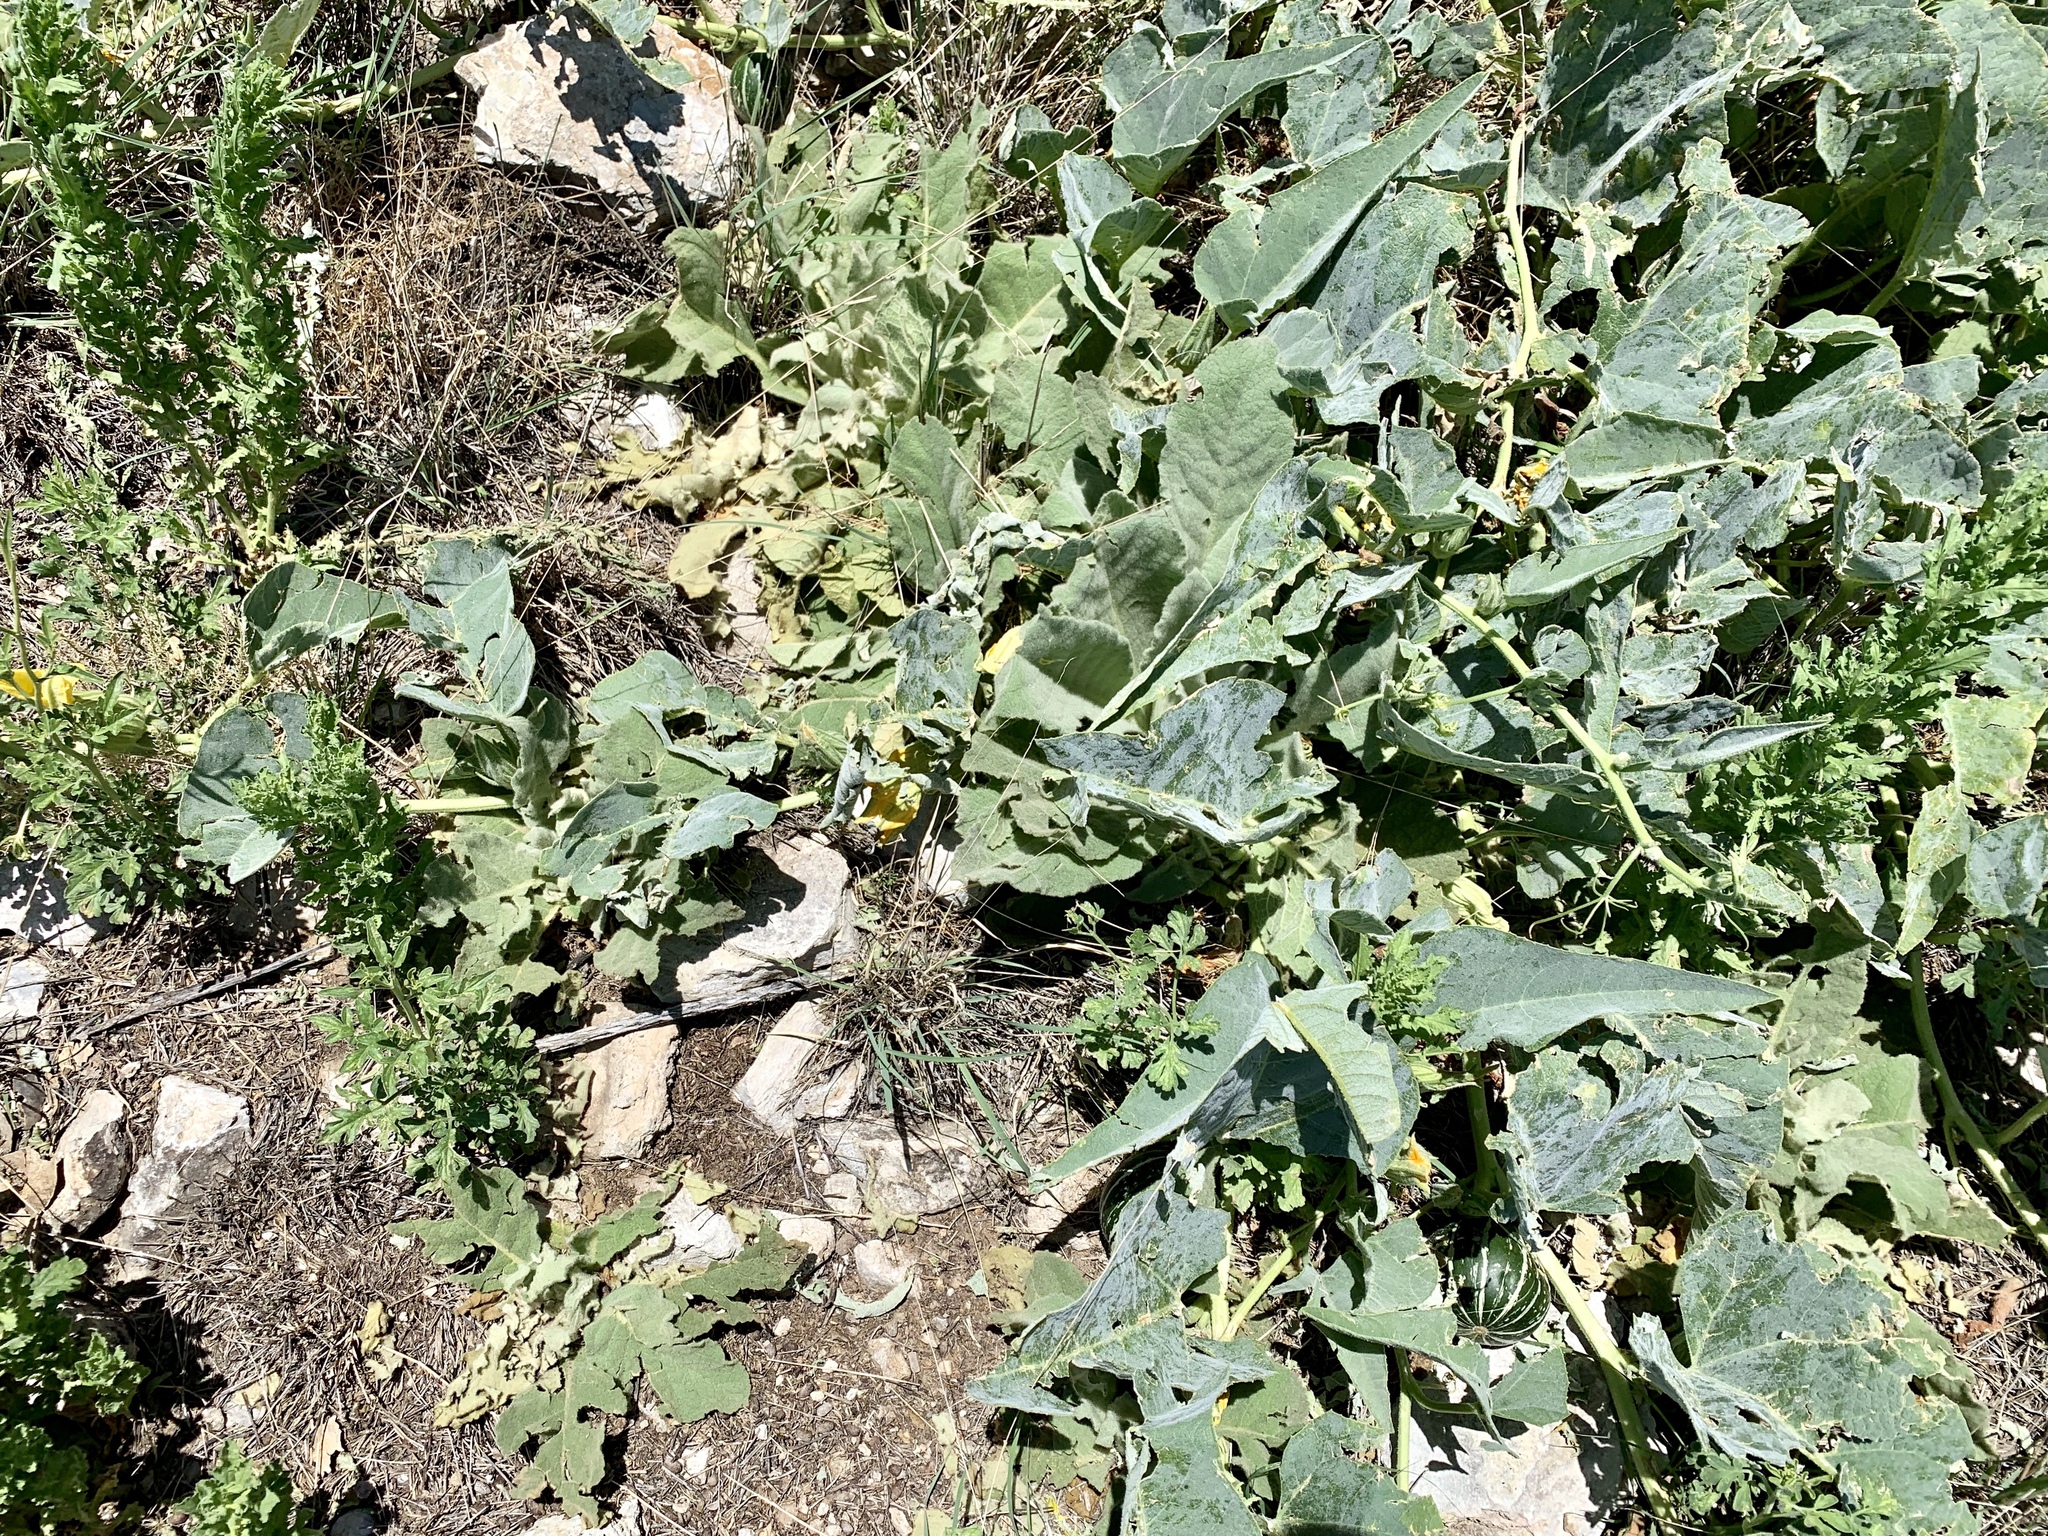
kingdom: Plantae
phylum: Tracheophyta
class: Magnoliopsida
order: Cucurbitales
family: Cucurbitaceae
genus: Cucurbita
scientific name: Cucurbita foetidissima
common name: Buffalo gourd
